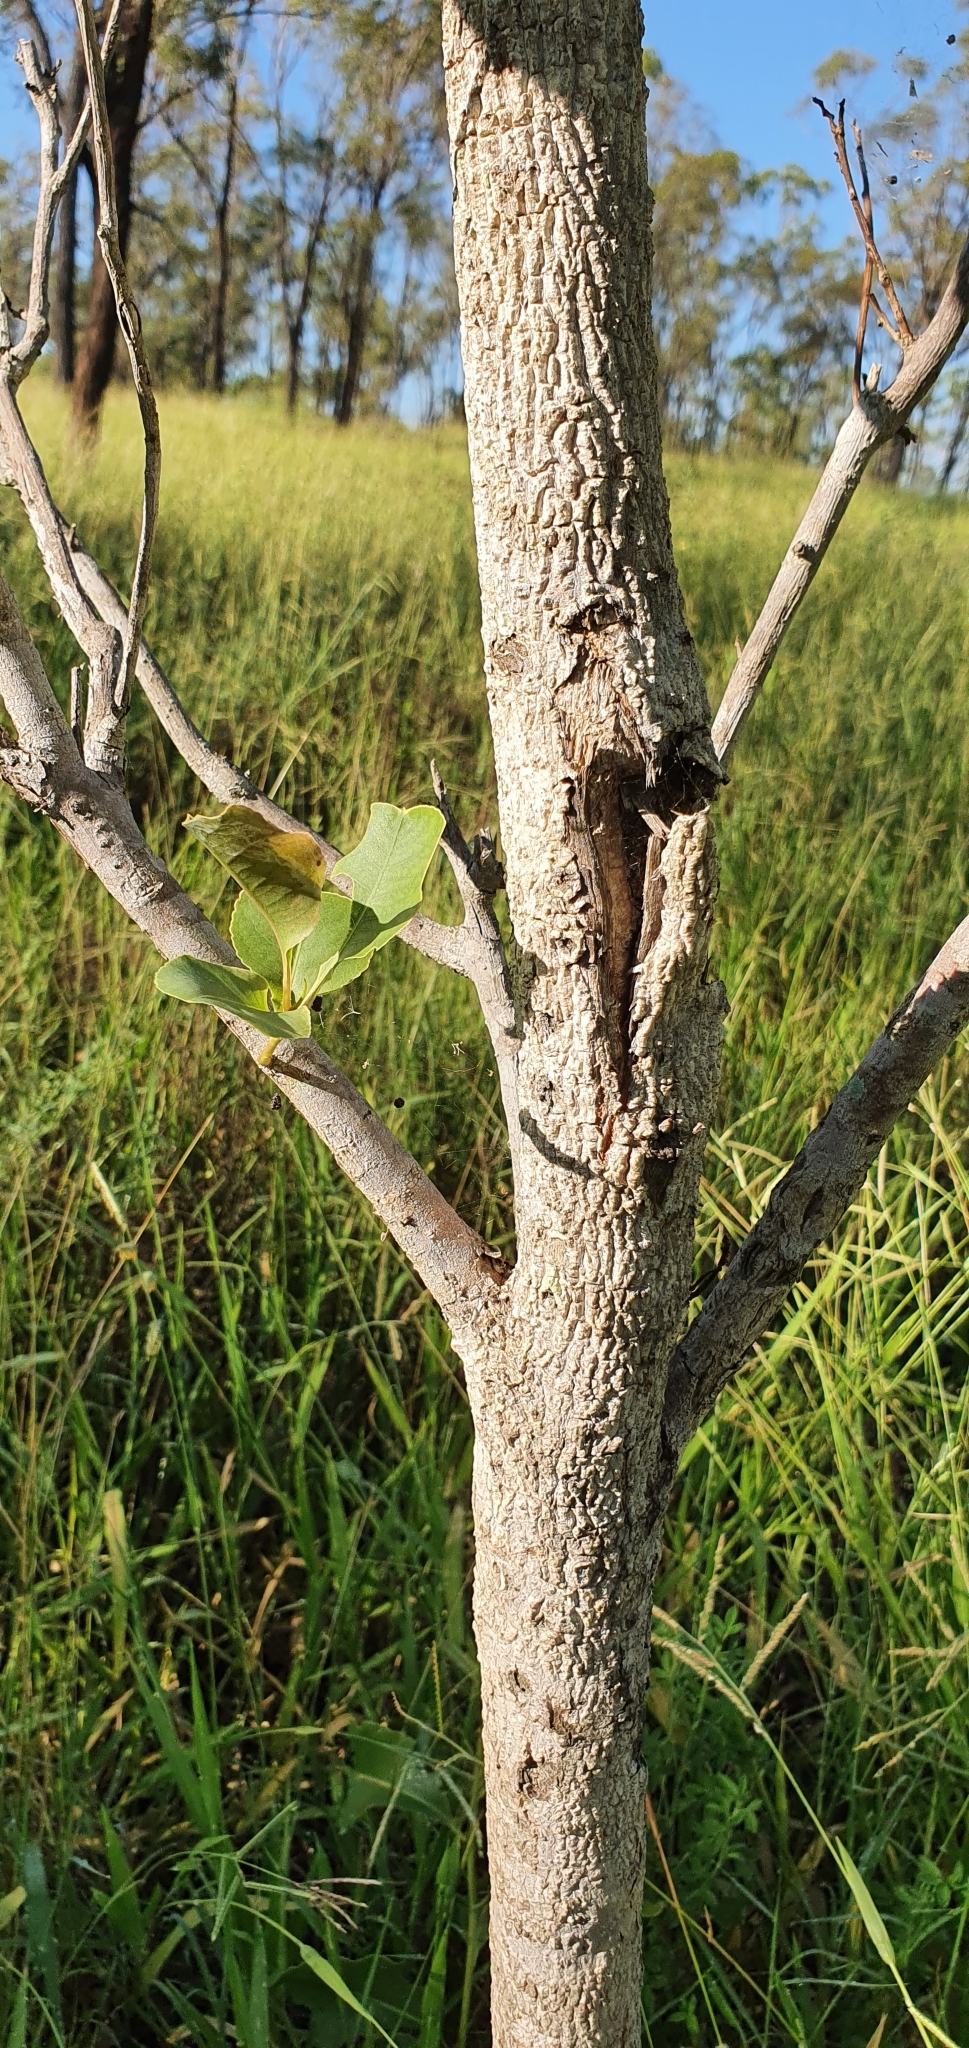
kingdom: Plantae
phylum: Tracheophyta
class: Magnoliopsida
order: Ericales
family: Lecythidaceae
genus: Planchonia
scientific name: Planchonia careya
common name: Cockatoo-apple
